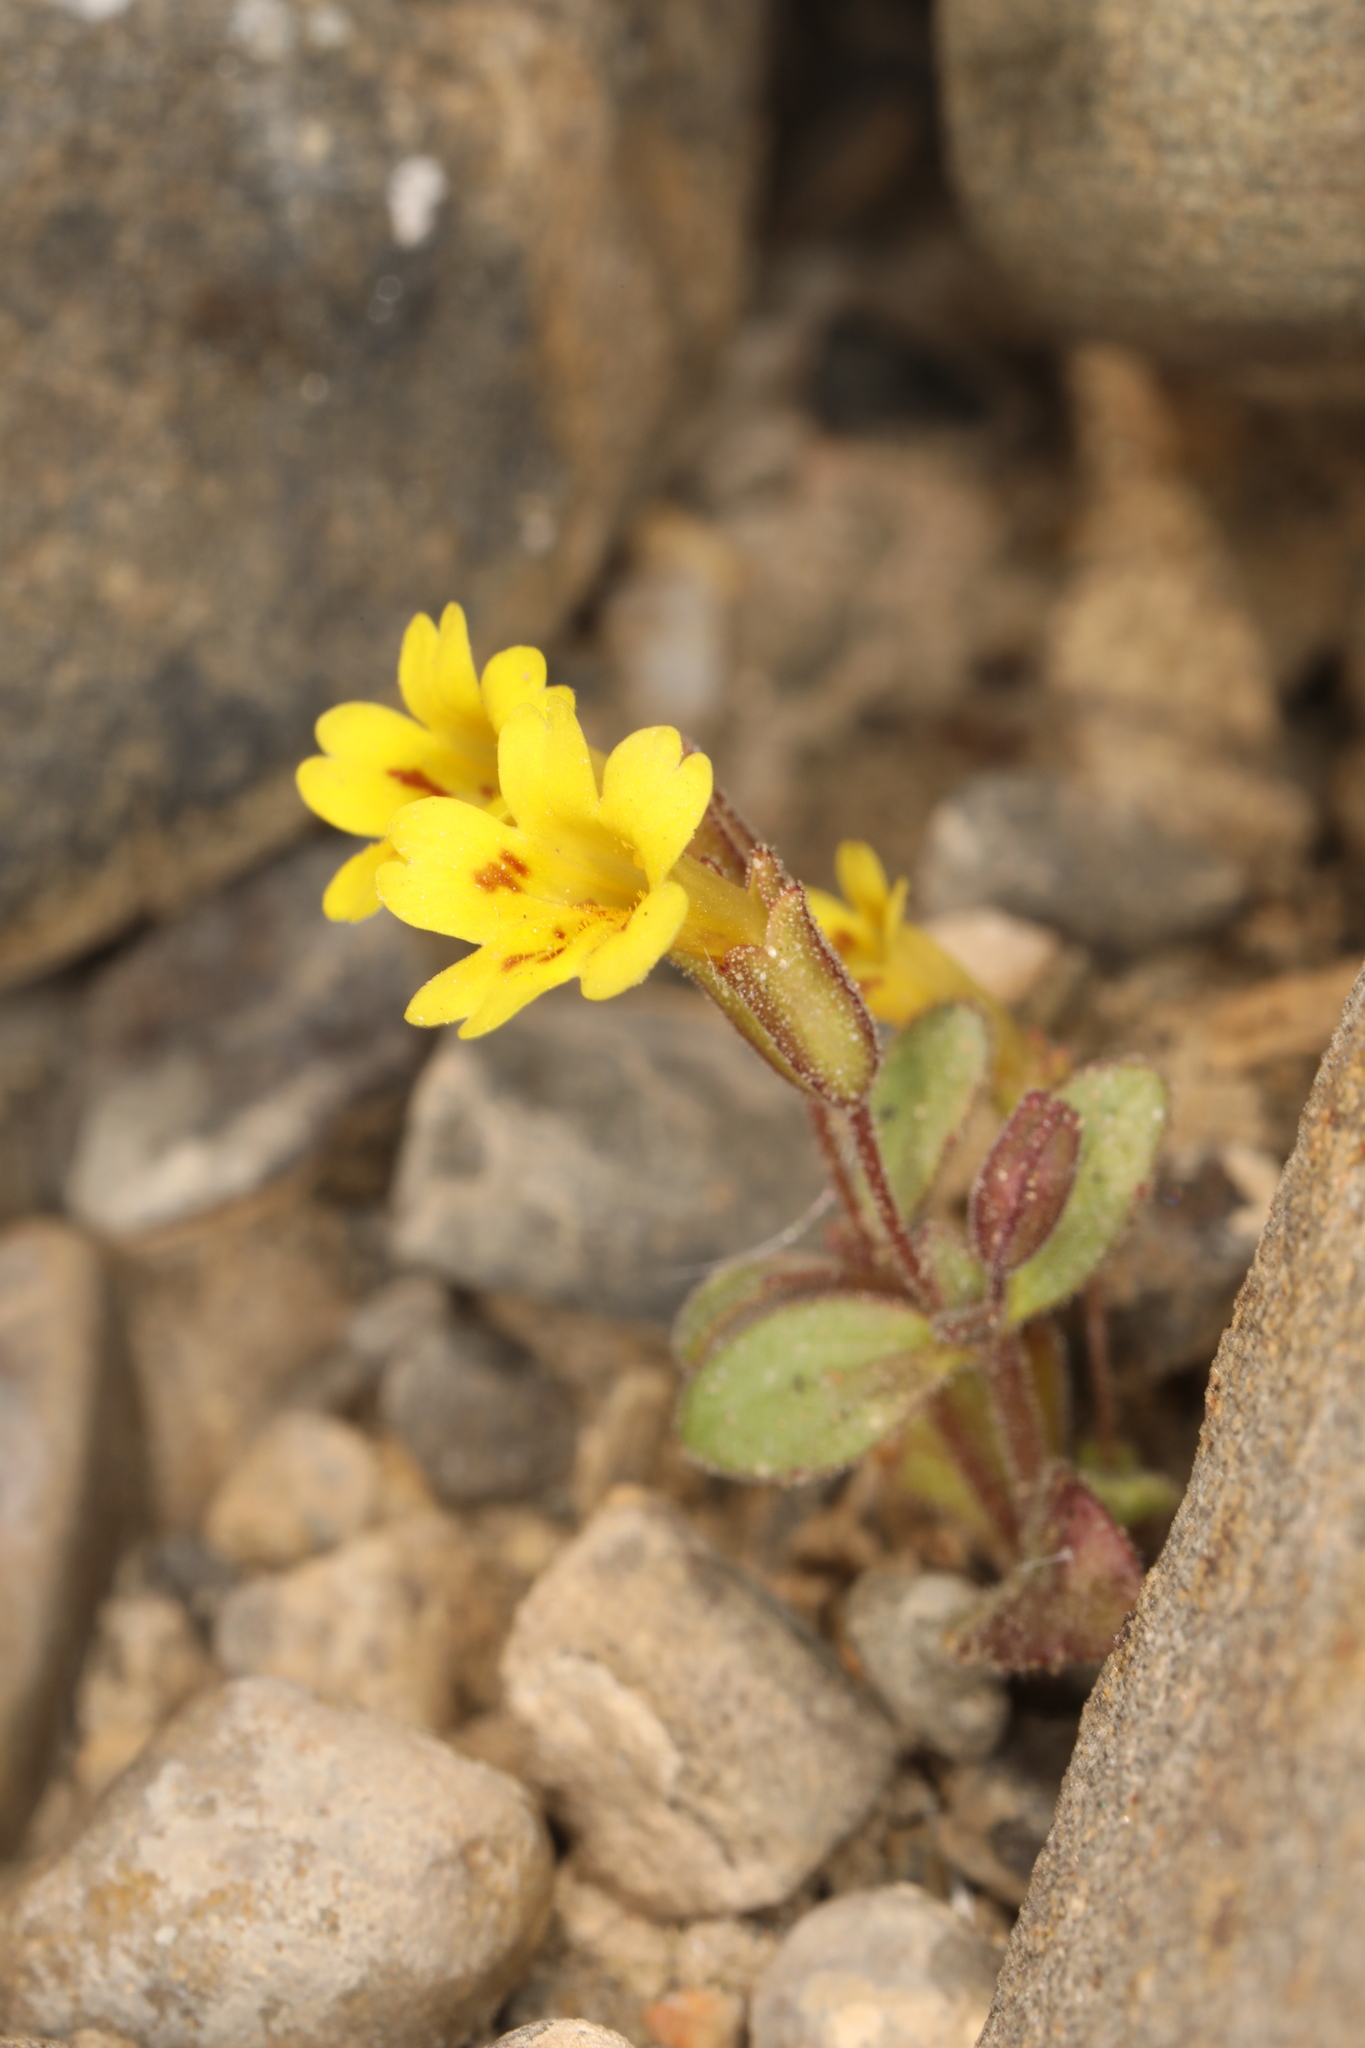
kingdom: Plantae
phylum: Tracheophyta
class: Magnoliopsida
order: Lamiales
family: Phrymaceae
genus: Erythranthe
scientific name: Erythranthe calcicola
